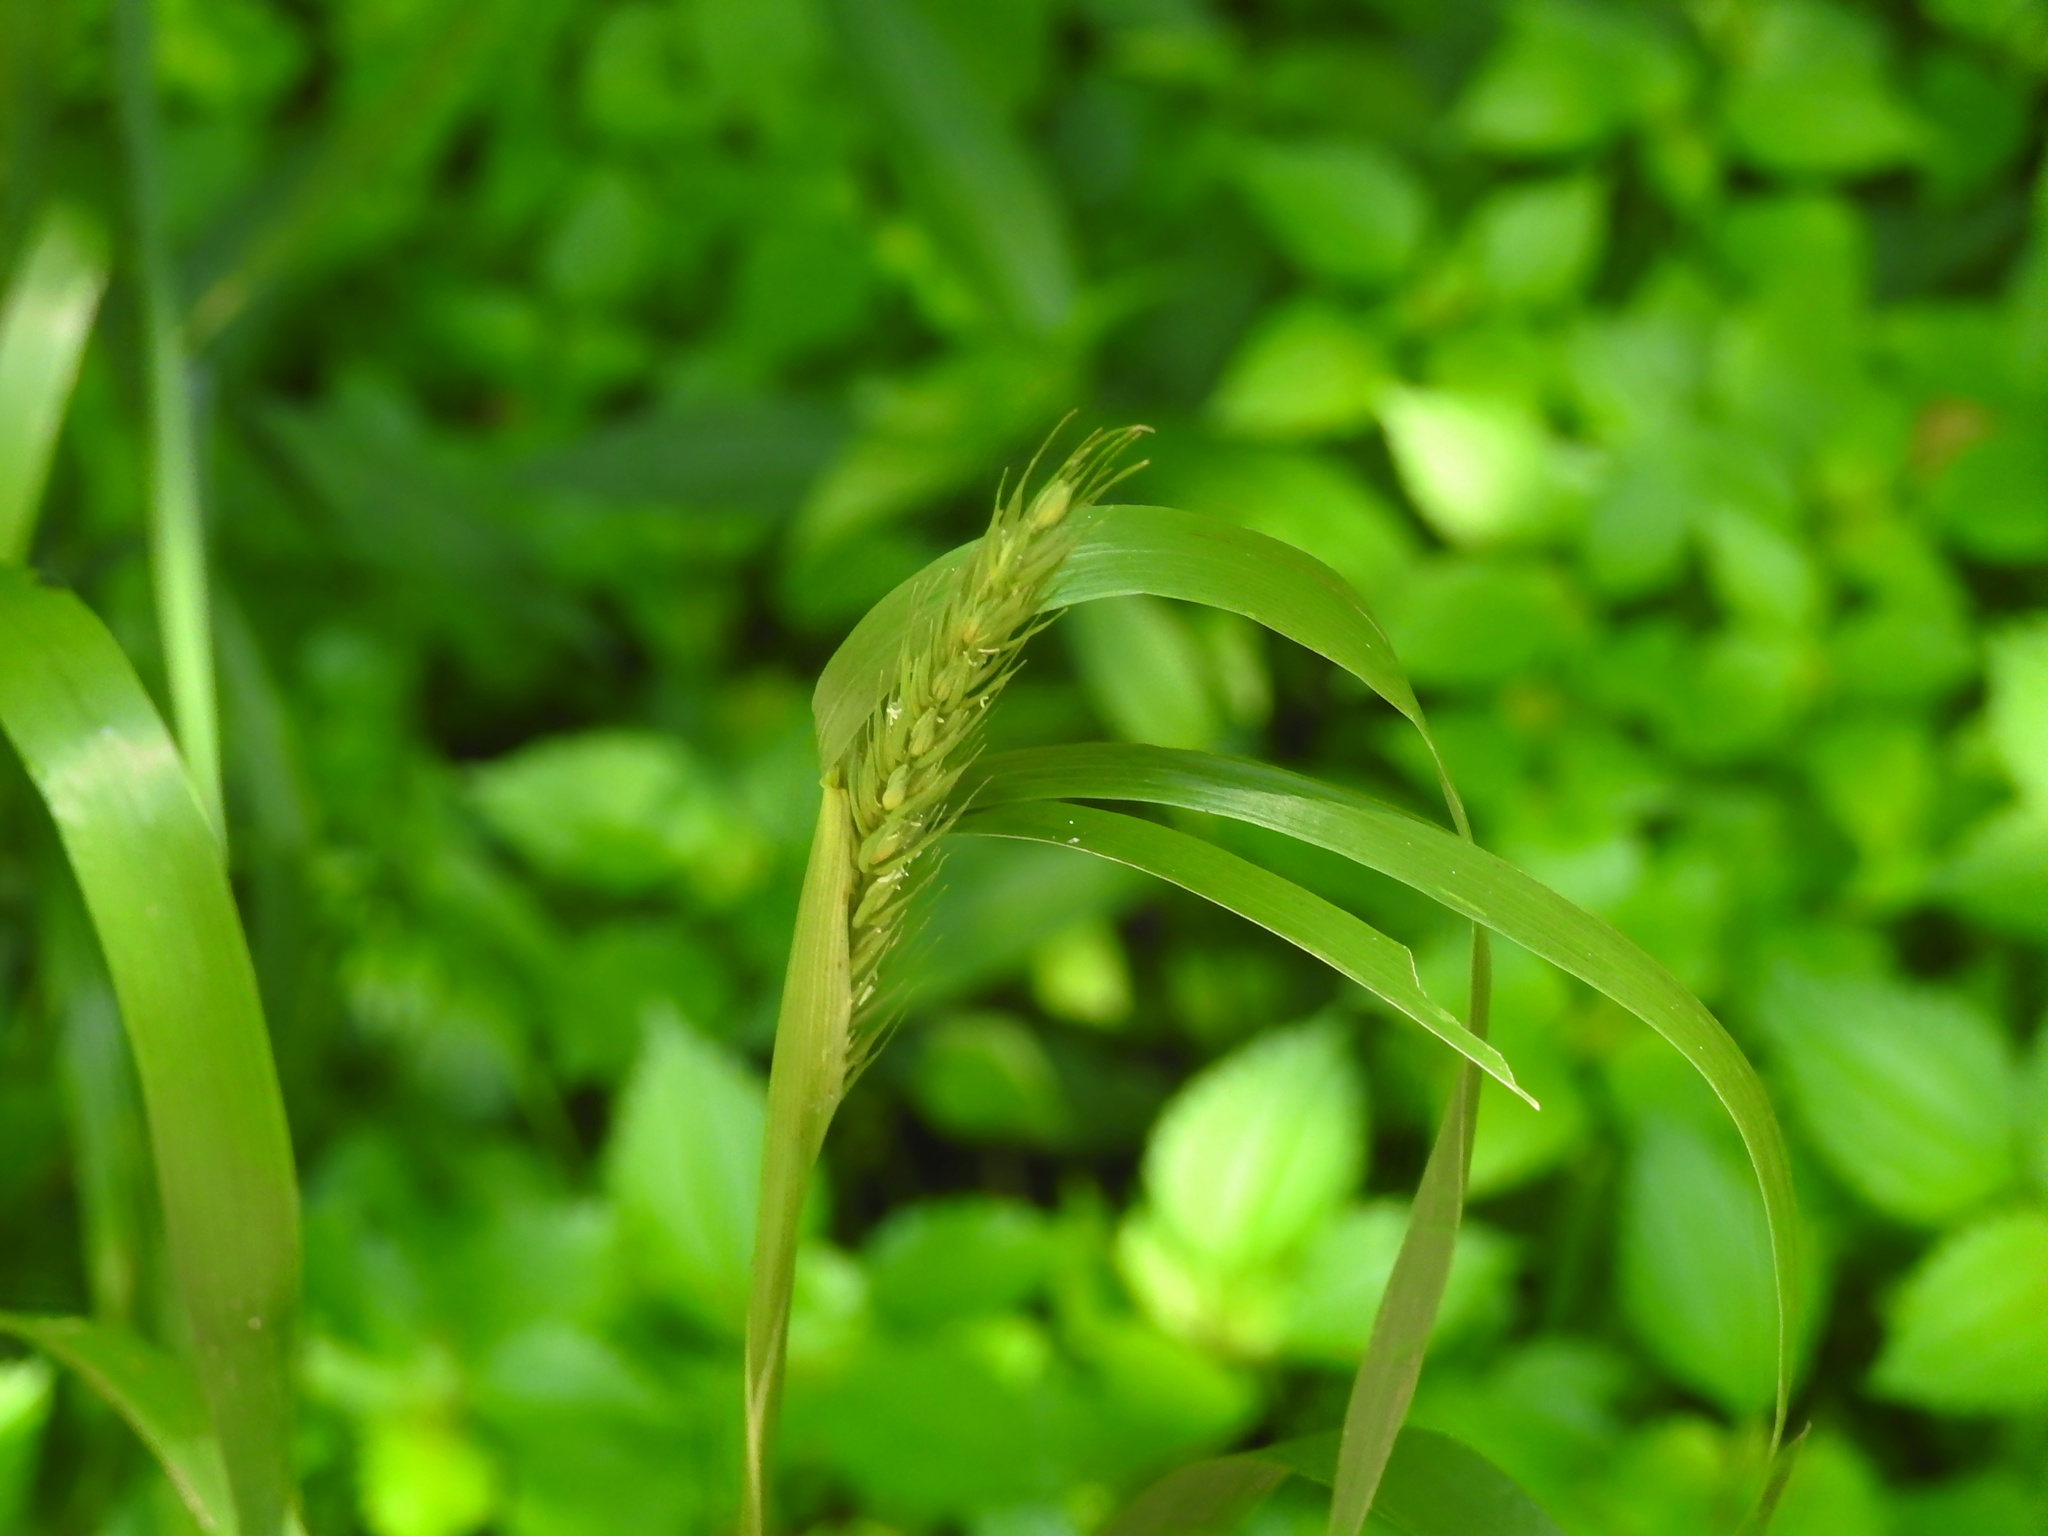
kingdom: Plantae
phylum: Tracheophyta
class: Liliopsida
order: Poales
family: Poaceae
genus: Elymus
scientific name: Elymus virginicus
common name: Common eastern wildrye
